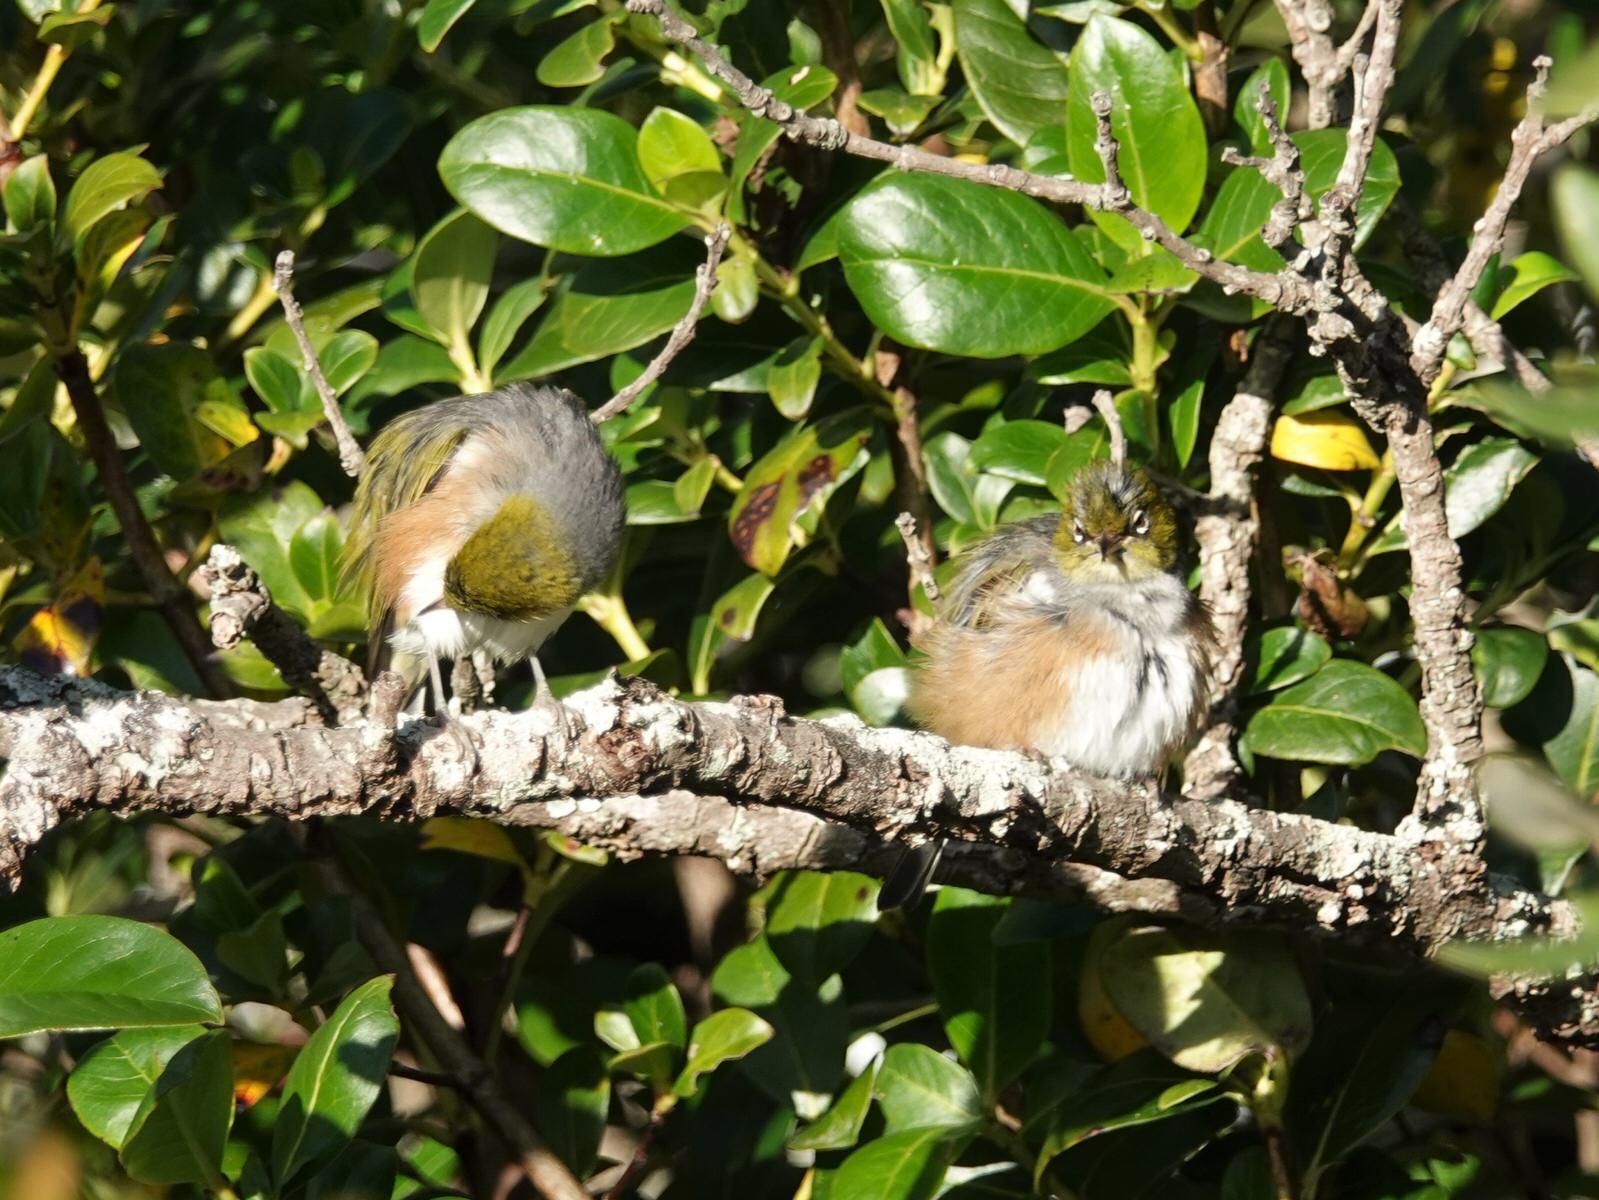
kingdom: Animalia
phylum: Chordata
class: Aves
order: Passeriformes
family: Zosteropidae
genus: Zosterops
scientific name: Zosterops lateralis
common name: Silvereye
